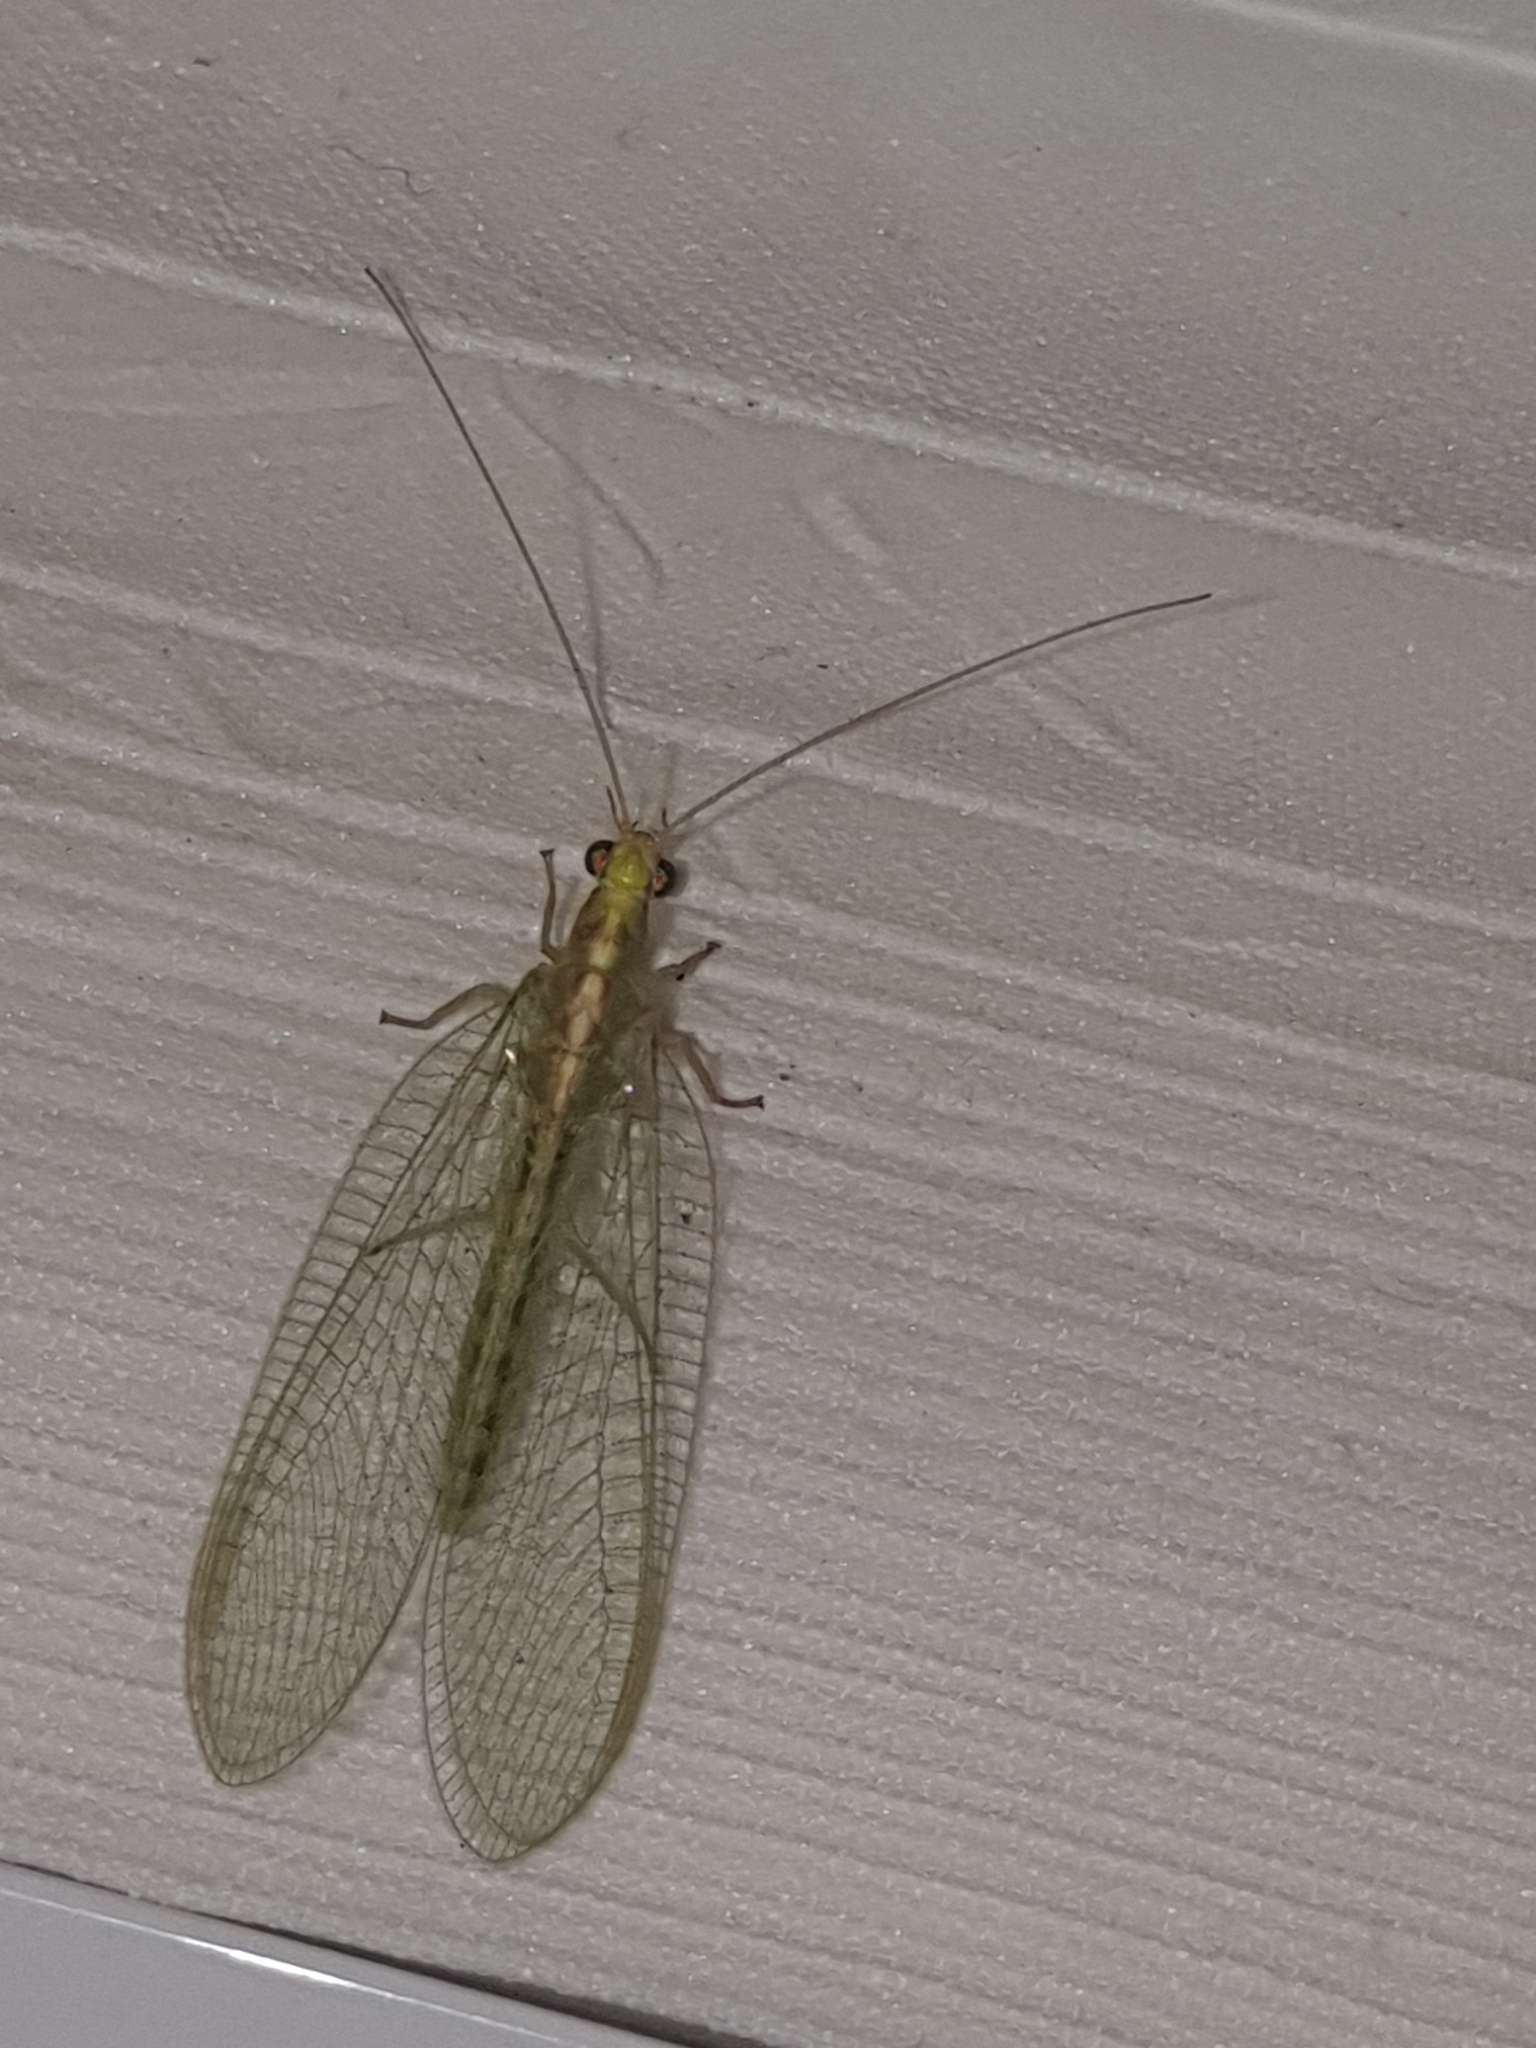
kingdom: Animalia
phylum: Arthropoda
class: Insecta
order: Neuroptera
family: Chrysopidae
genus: Chrysoperla
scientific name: Chrysoperla
